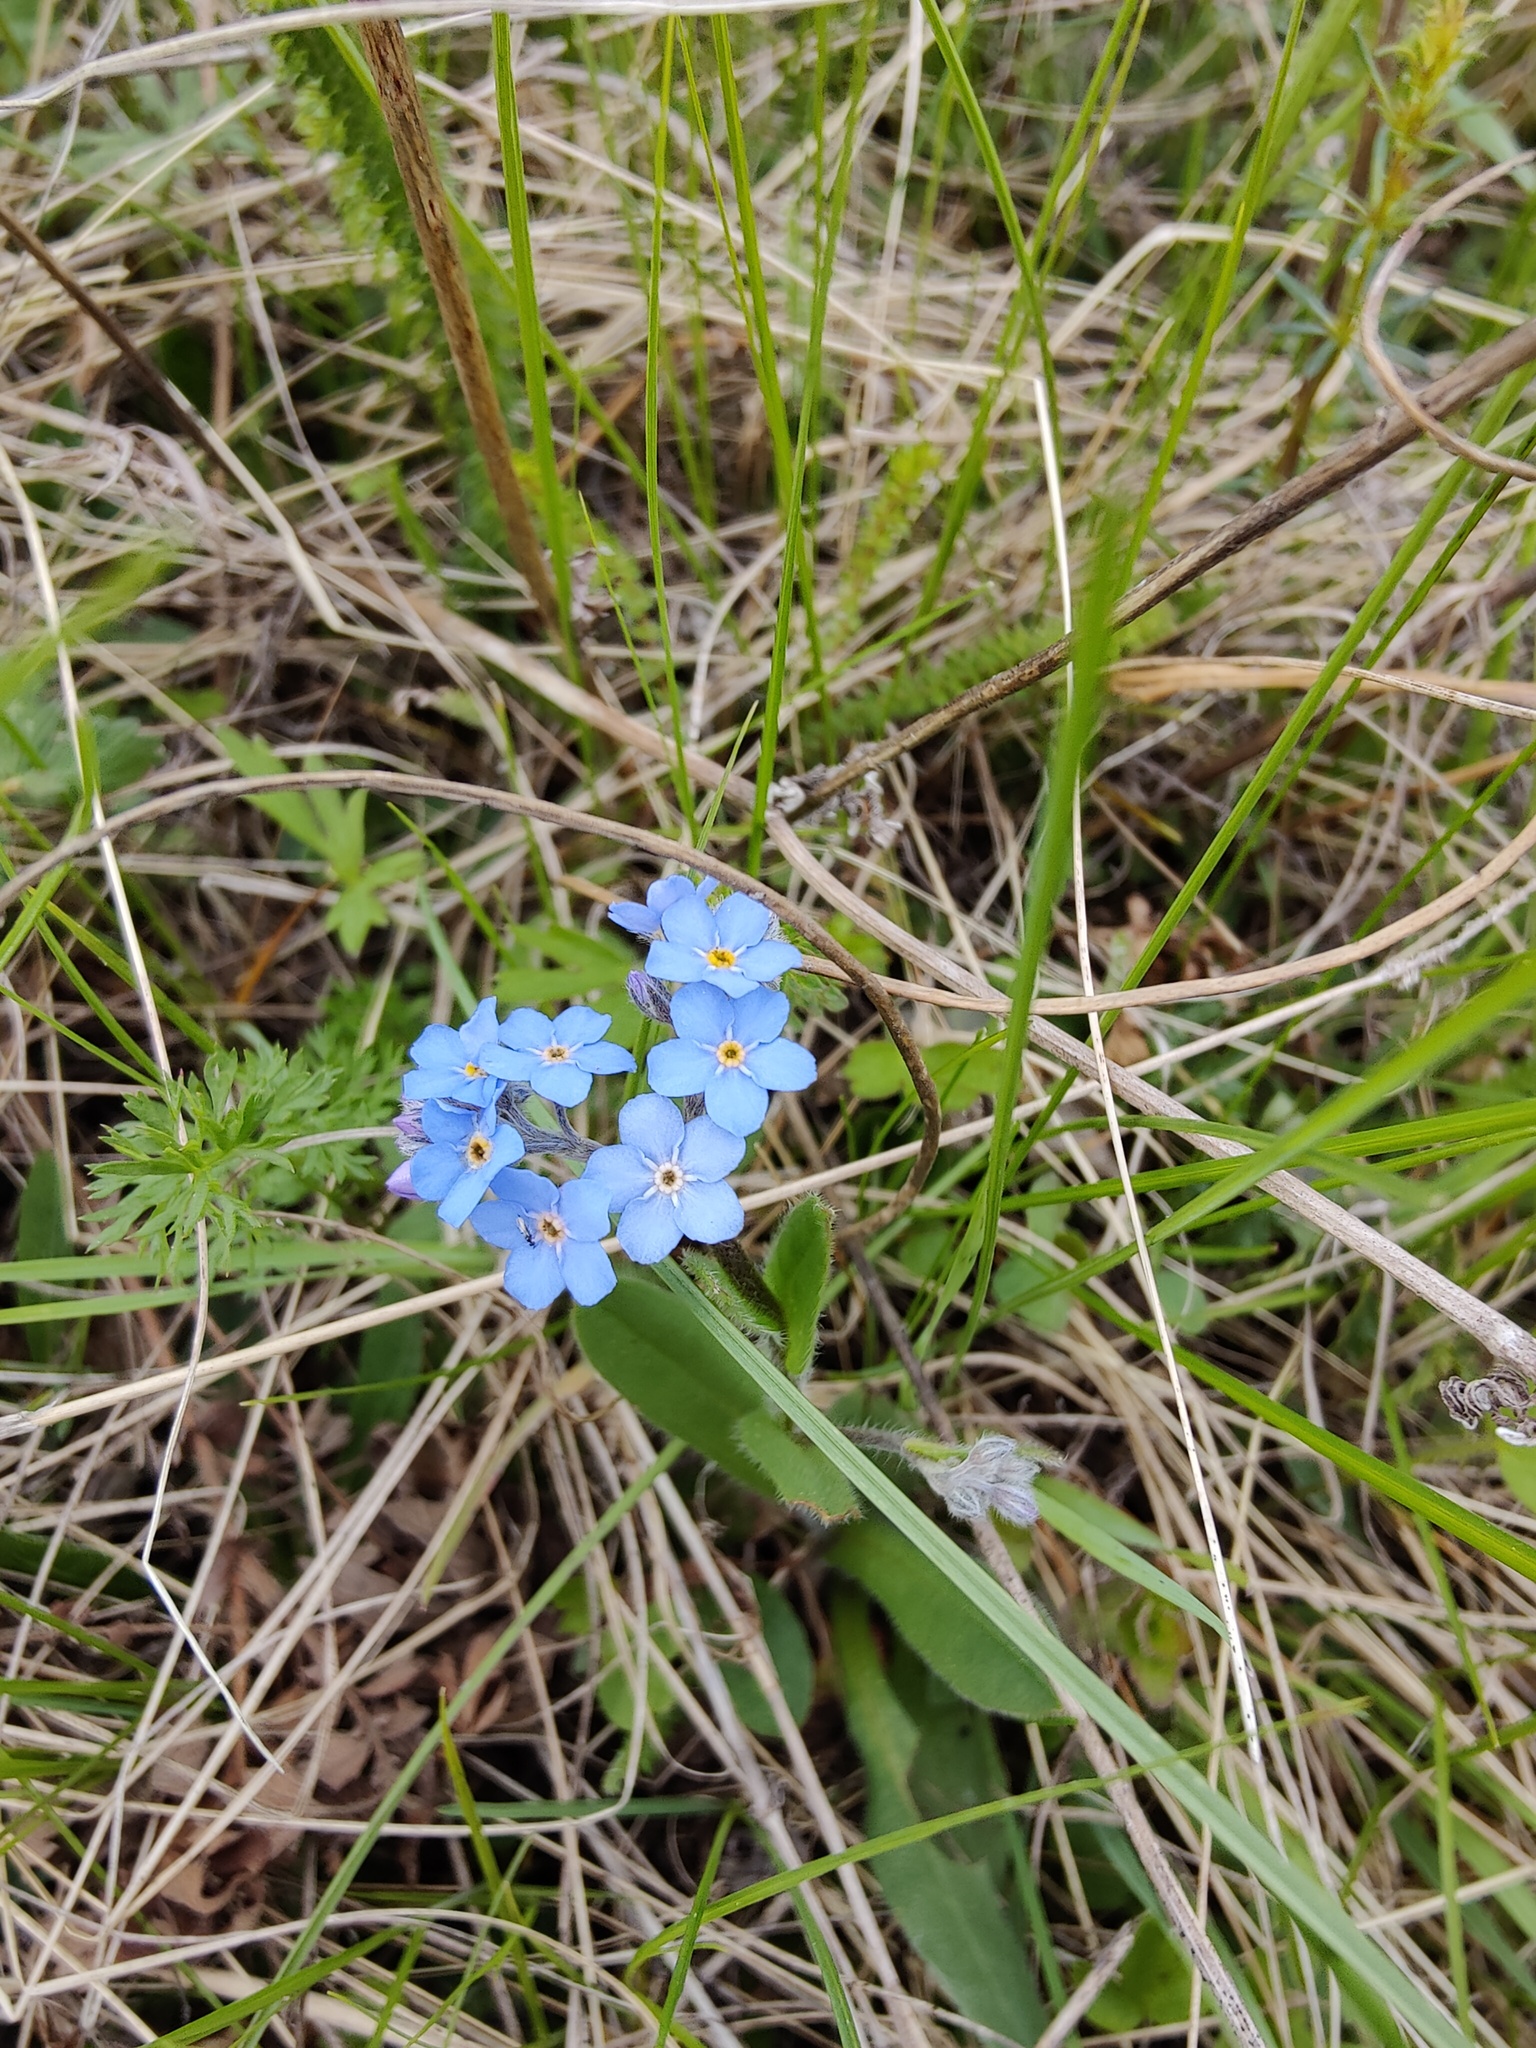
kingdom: Plantae
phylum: Tracheophyta
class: Magnoliopsida
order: Boraginales
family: Boraginaceae
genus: Myosotis
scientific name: Myosotis alpestris
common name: Alpine forget-me-not
